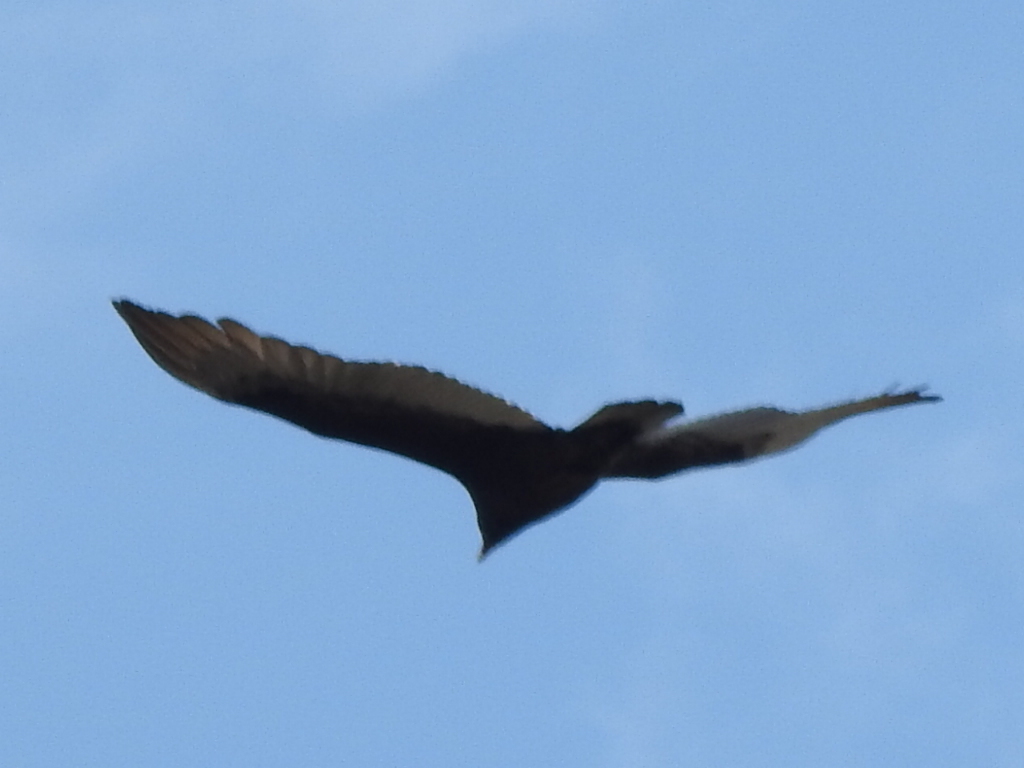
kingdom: Animalia
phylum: Chordata
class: Aves
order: Accipitriformes
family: Cathartidae
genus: Cathartes
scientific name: Cathartes aura
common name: Turkey vulture
